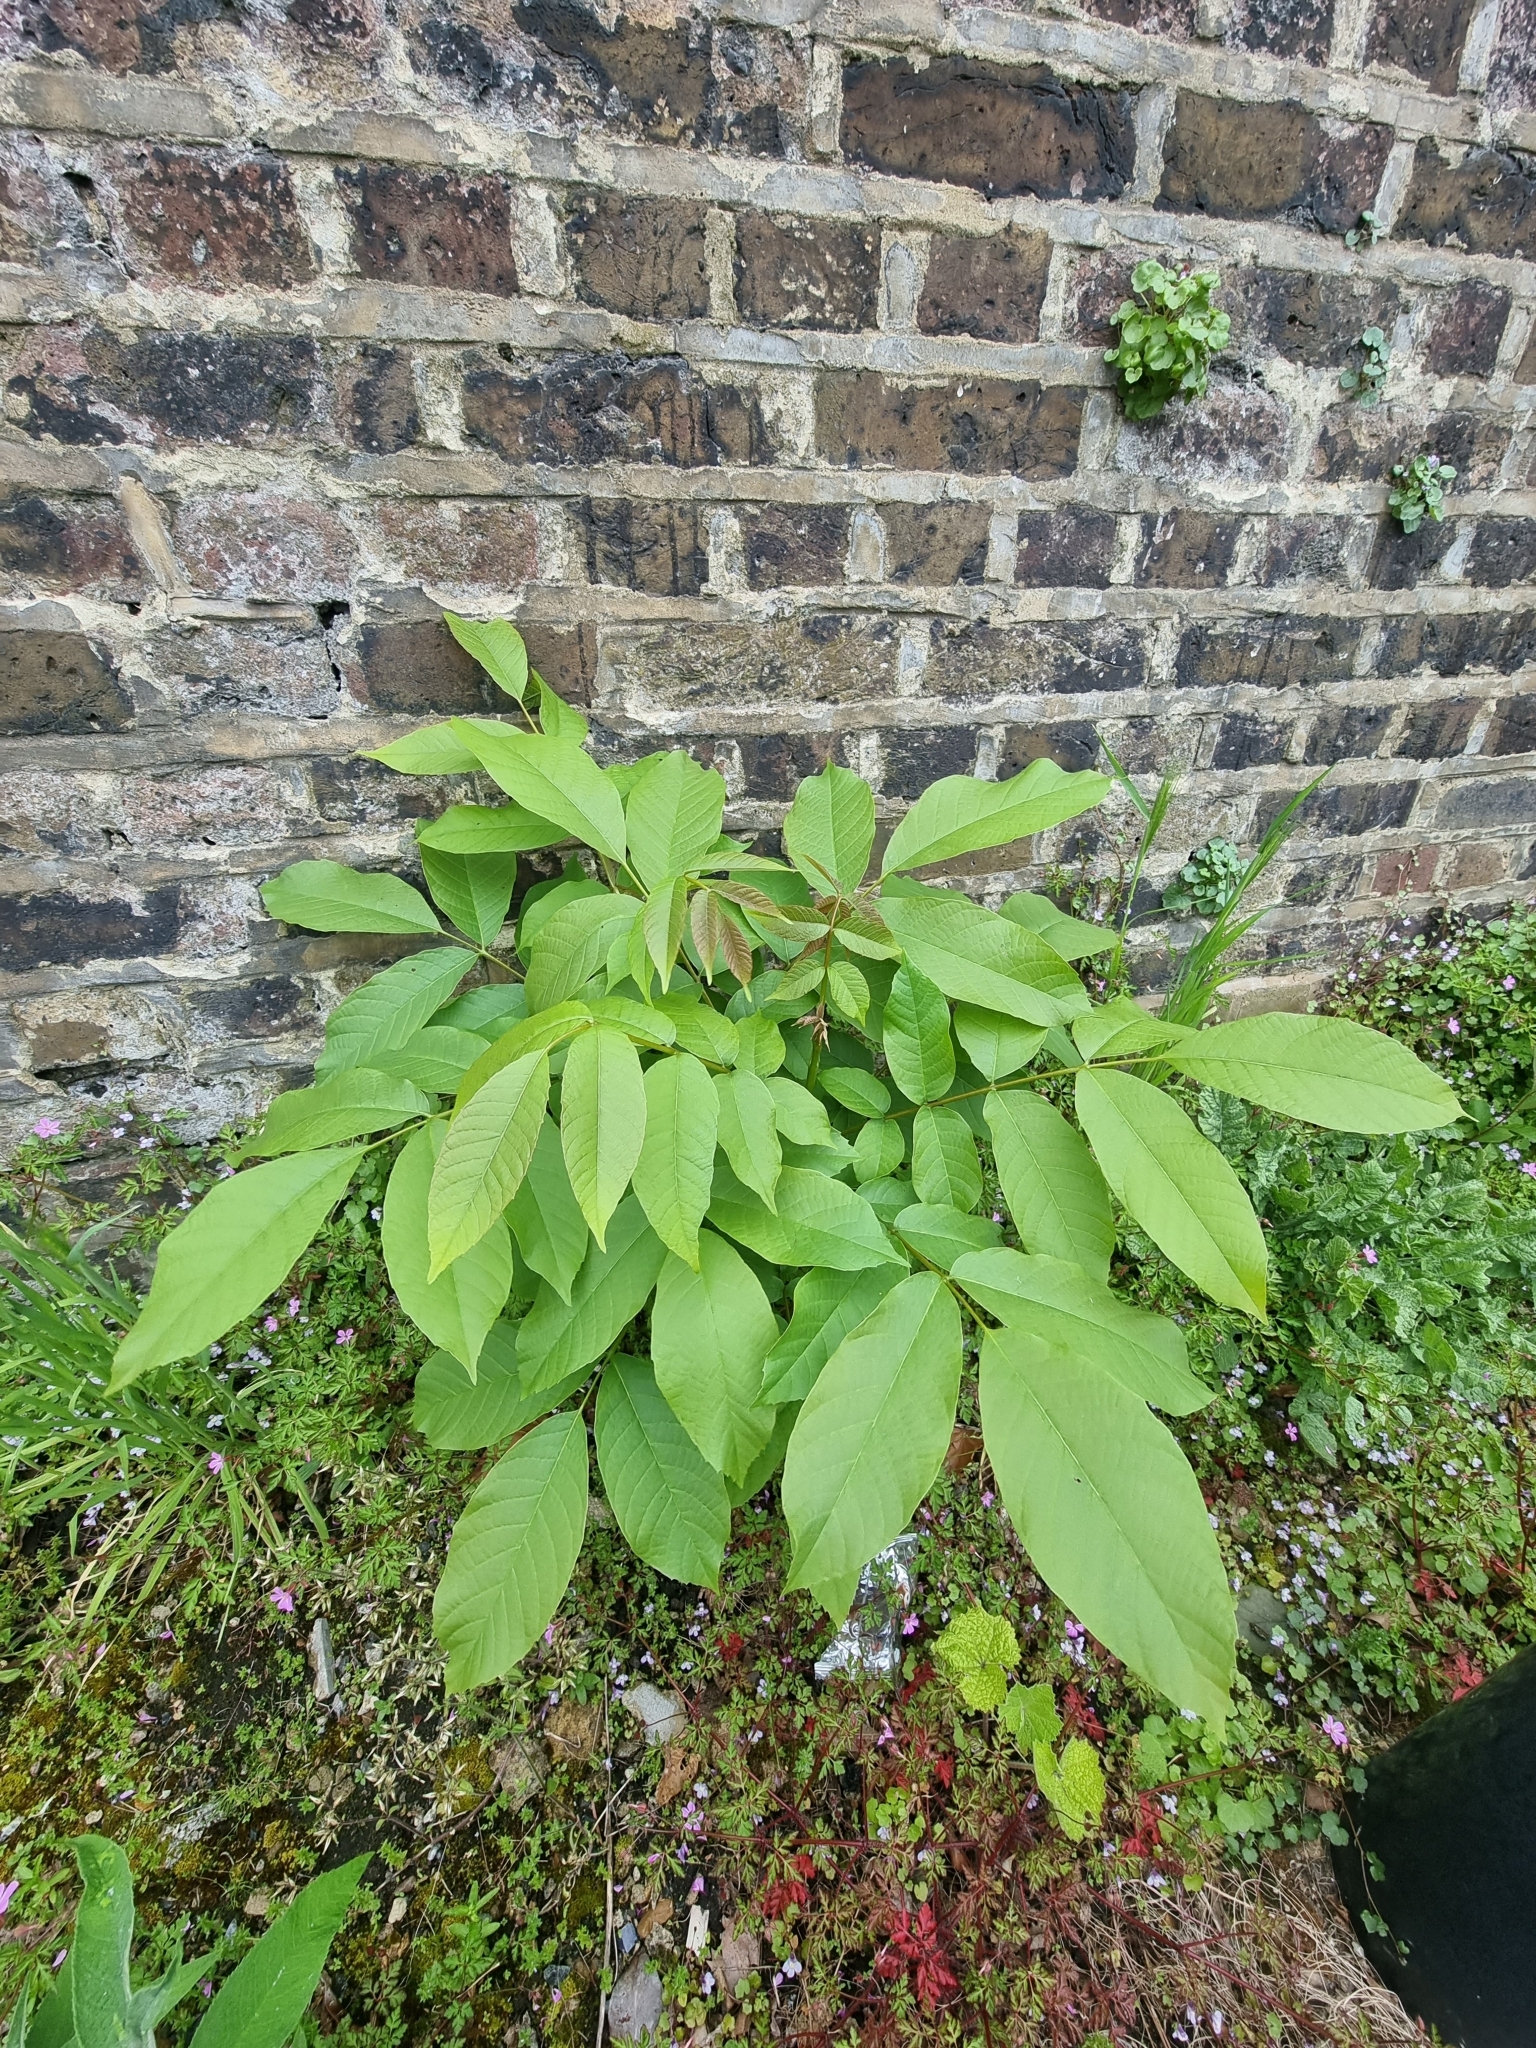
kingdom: Plantae
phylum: Tracheophyta
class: Magnoliopsida
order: Fagales
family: Juglandaceae
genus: Juglans
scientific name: Juglans regia
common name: Walnut
